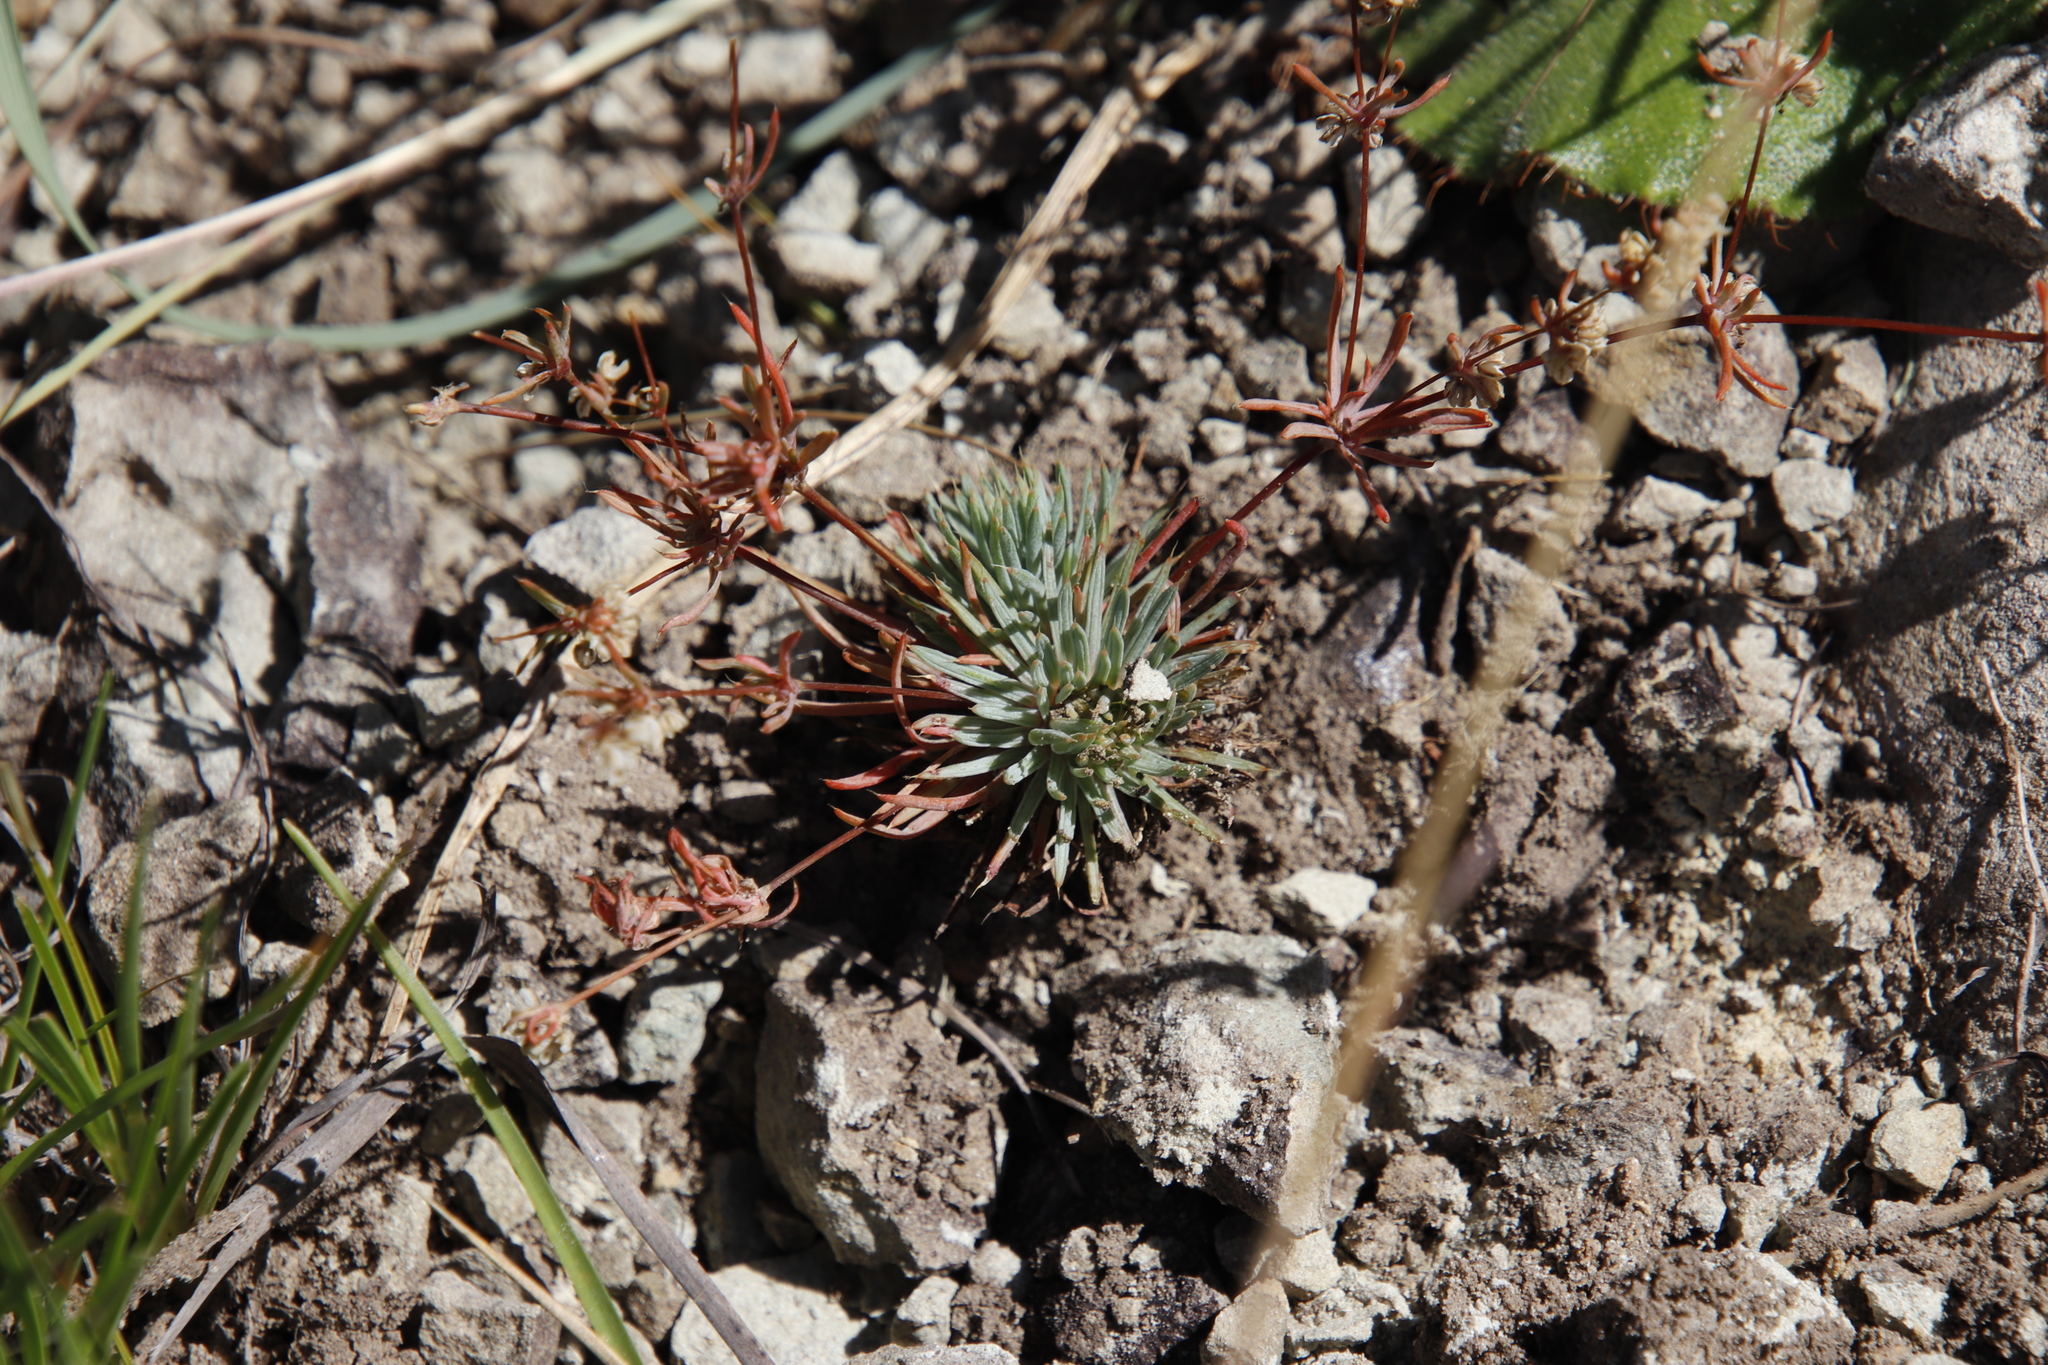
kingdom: Plantae
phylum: Tracheophyta
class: Magnoliopsida
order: Caryophyllales
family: Molluginaceae
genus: Psammotropha
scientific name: Psammotropha mucronata
